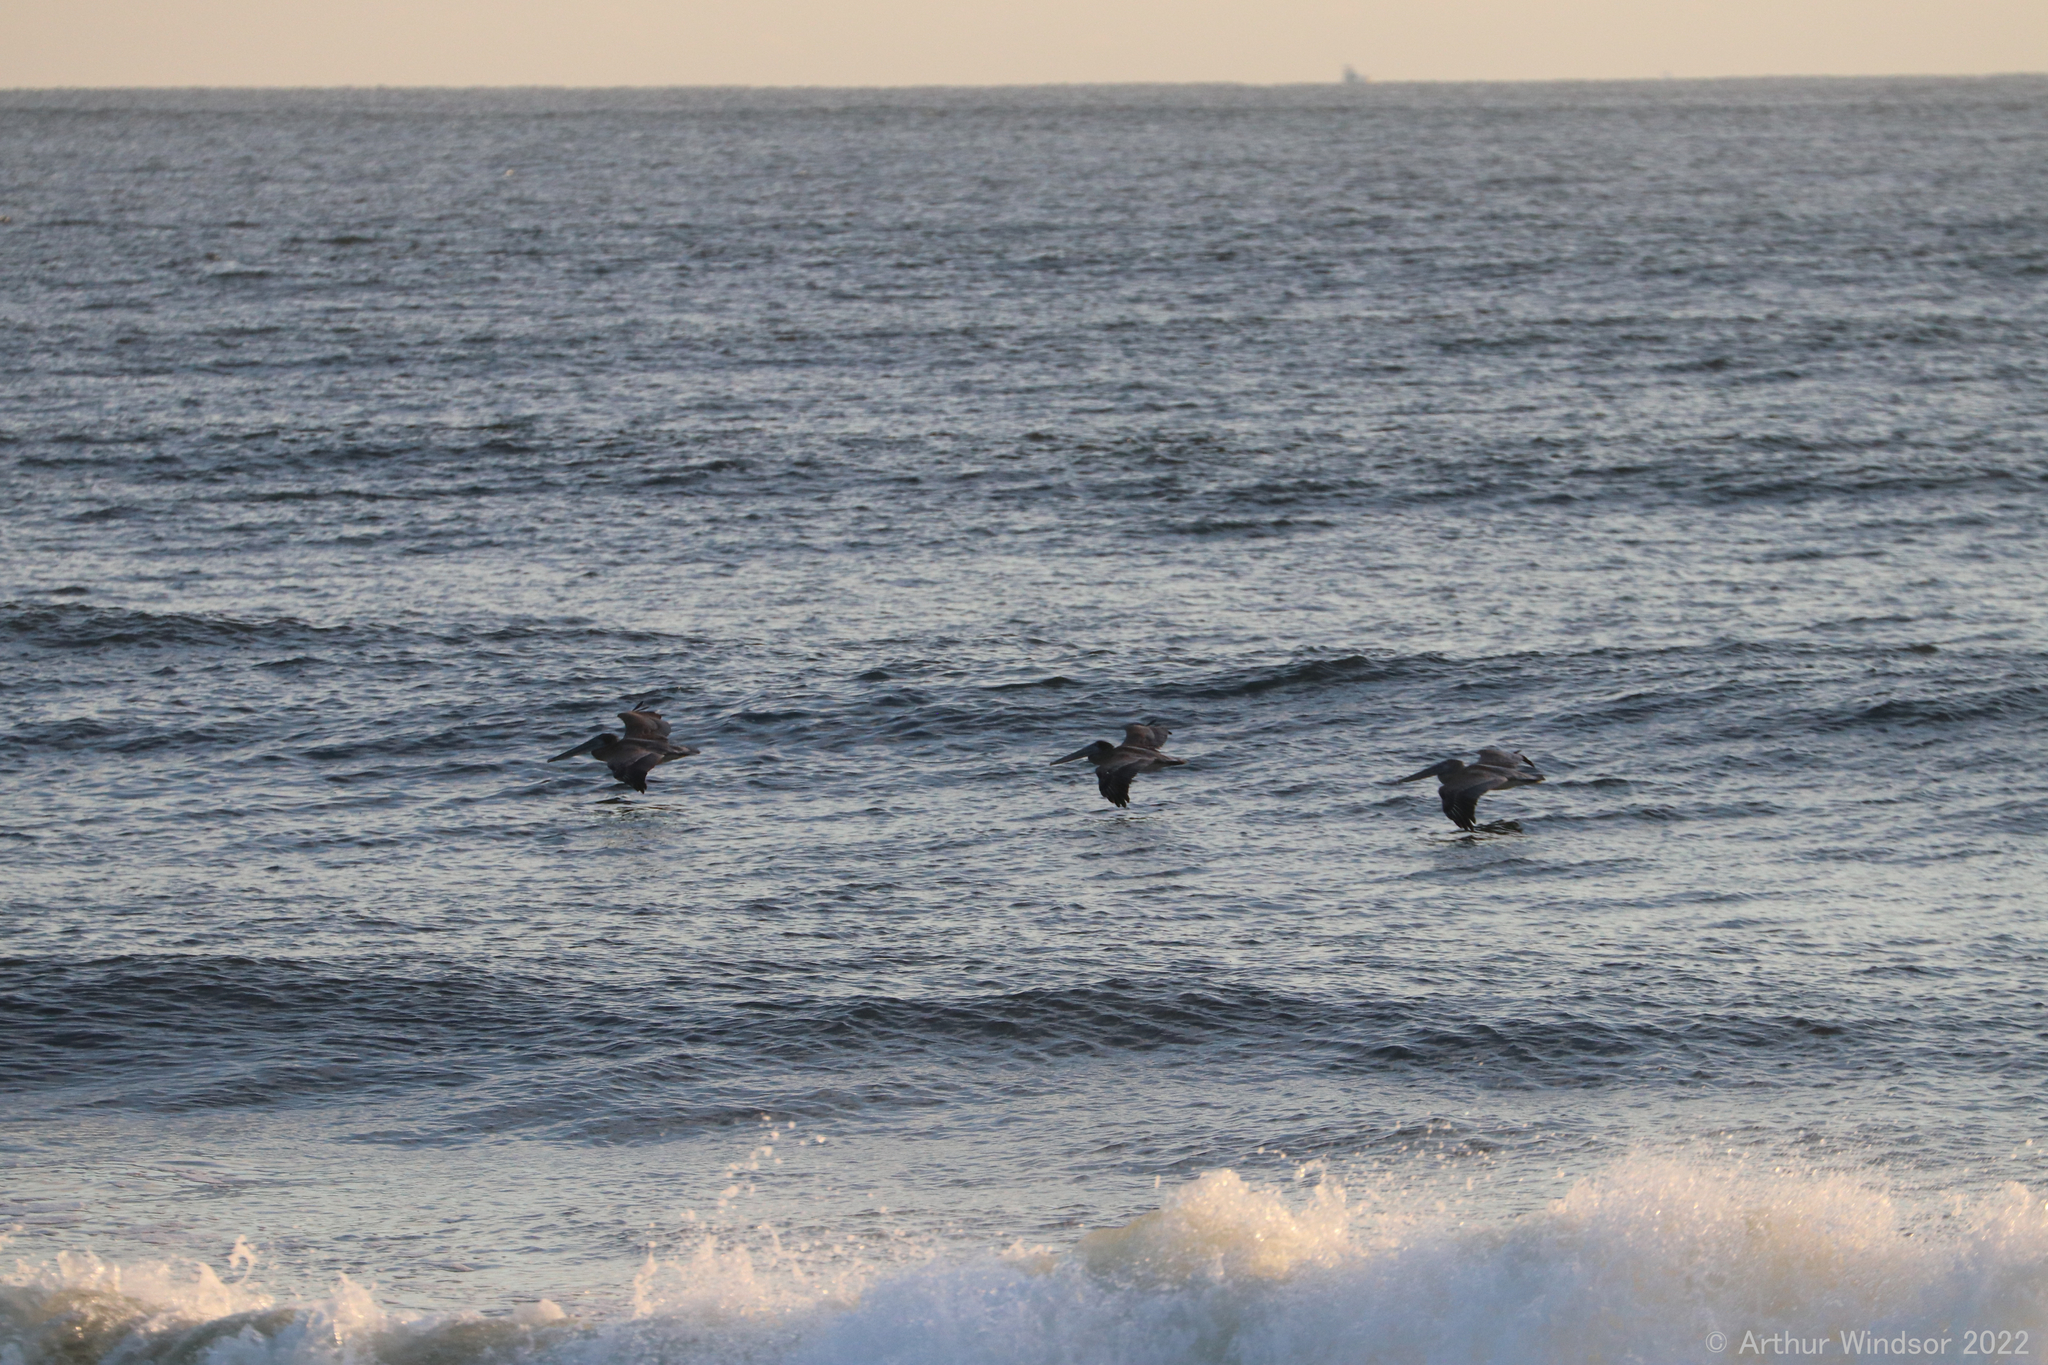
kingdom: Animalia
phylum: Chordata
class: Aves
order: Pelecaniformes
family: Pelecanidae
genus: Pelecanus
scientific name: Pelecanus occidentalis
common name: Brown pelican
